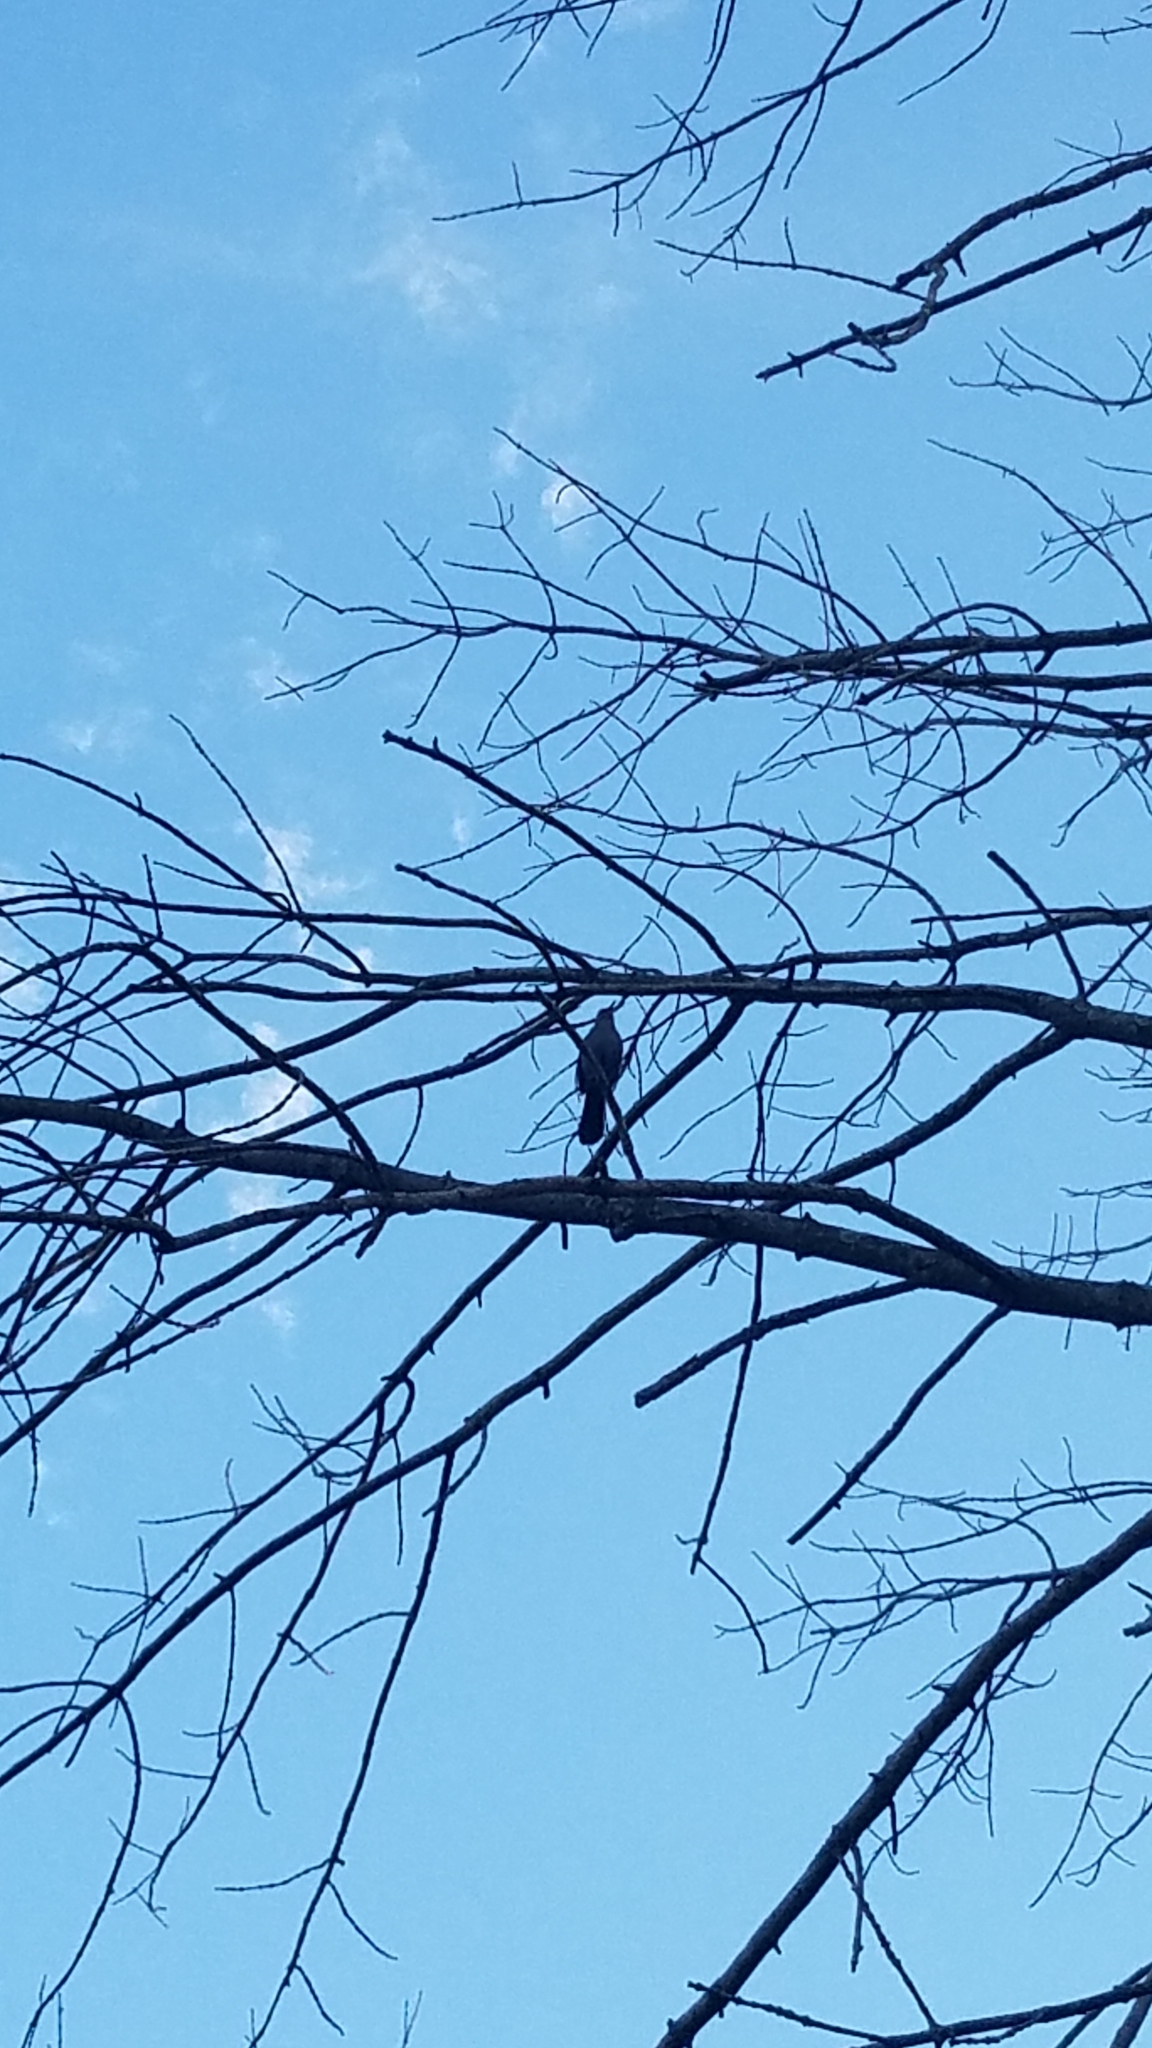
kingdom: Animalia
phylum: Chordata
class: Aves
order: Passeriformes
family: Mimidae
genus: Dumetella
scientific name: Dumetella carolinensis
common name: Gray catbird
